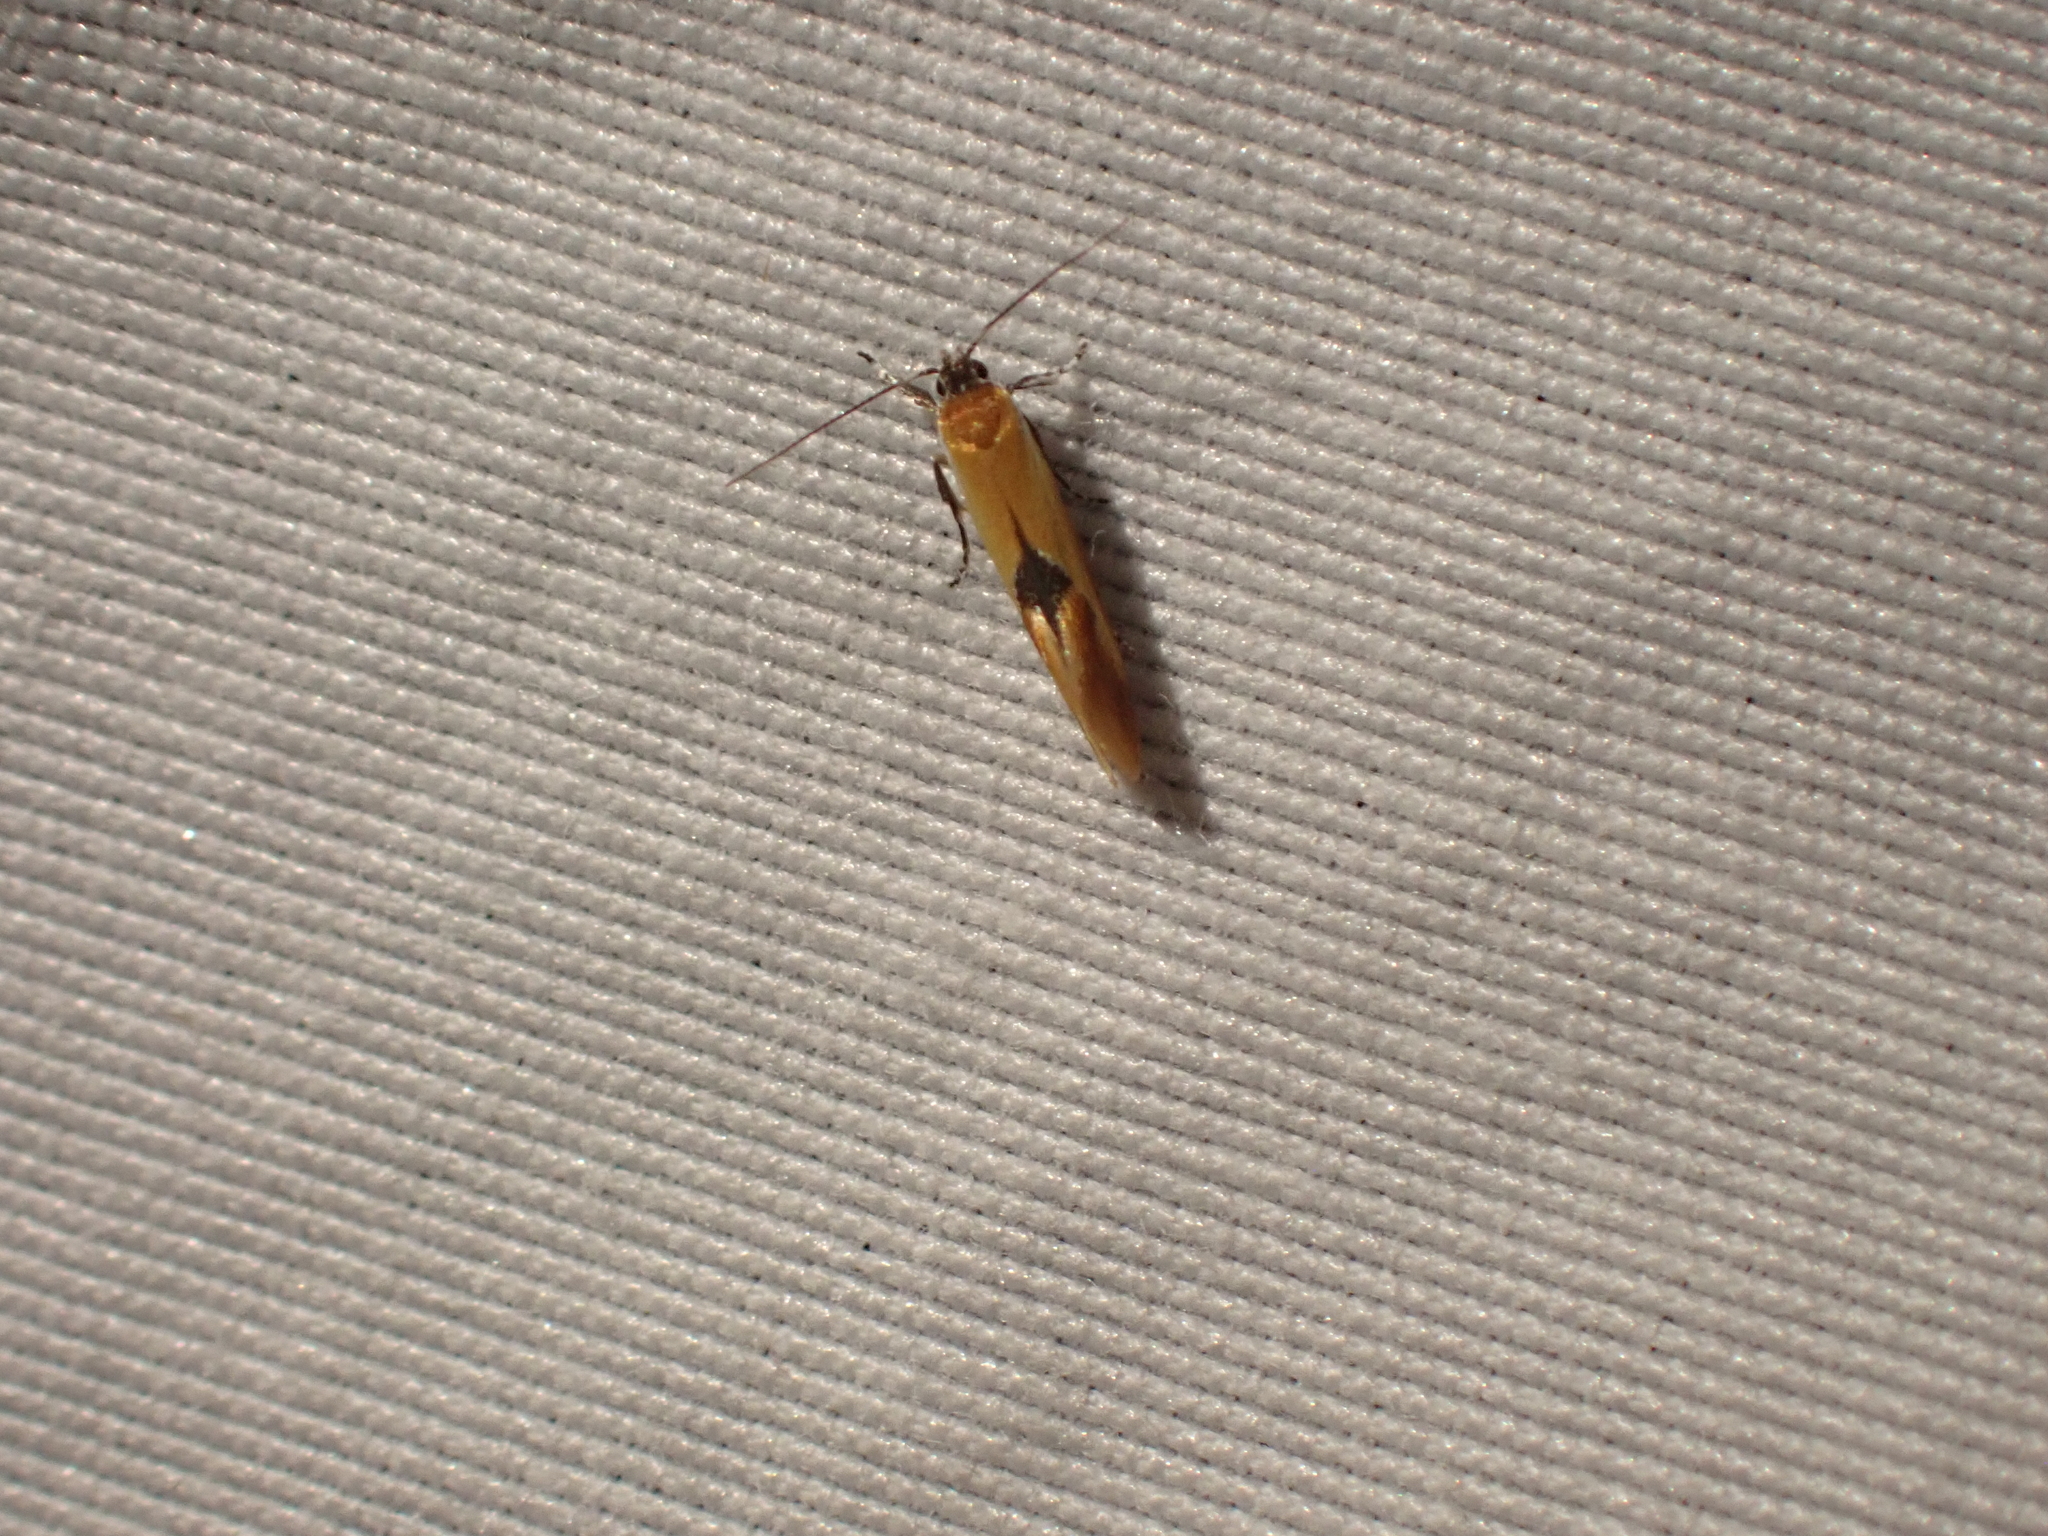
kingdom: Animalia
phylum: Arthropoda
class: Insecta
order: Lepidoptera
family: Oecophoridae
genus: Batia
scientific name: Batia lunaris
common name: Moth
